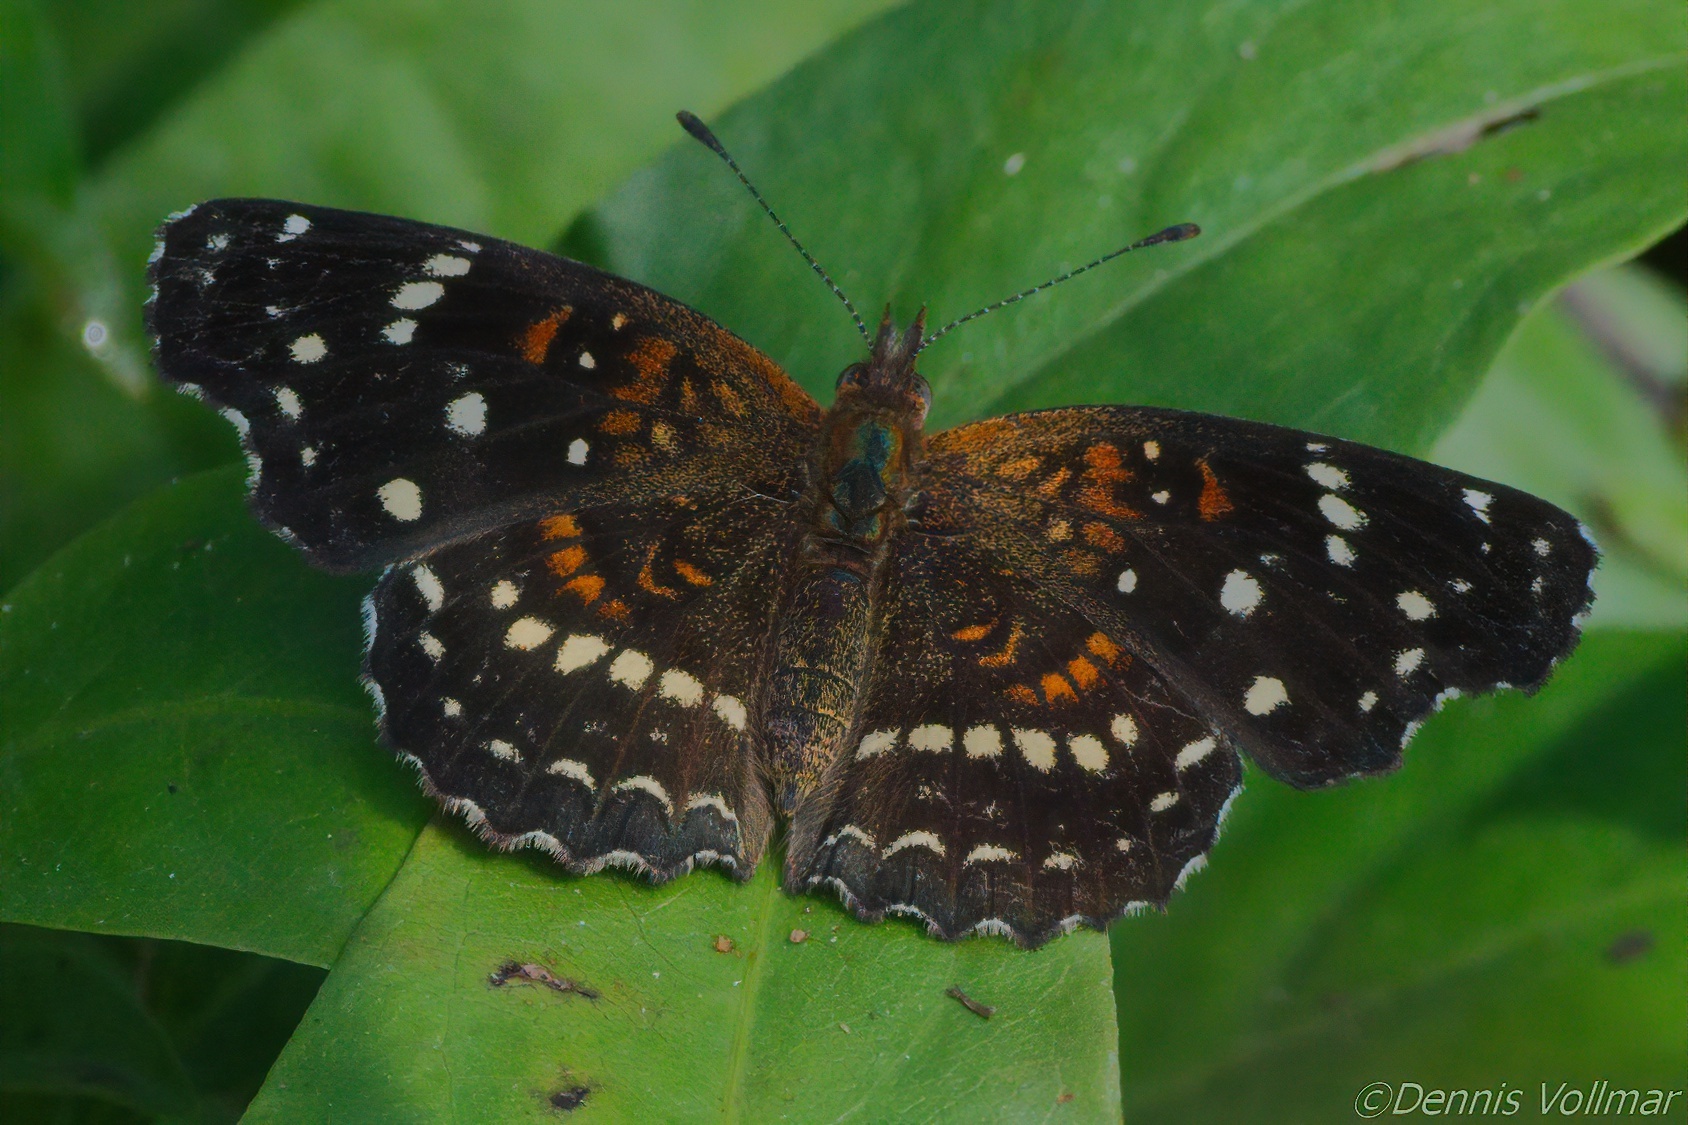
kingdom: Animalia
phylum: Arthropoda
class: Insecta
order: Lepidoptera
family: Nymphalidae
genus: Anthanassa
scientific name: Anthanassa texana
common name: Texan crescent
